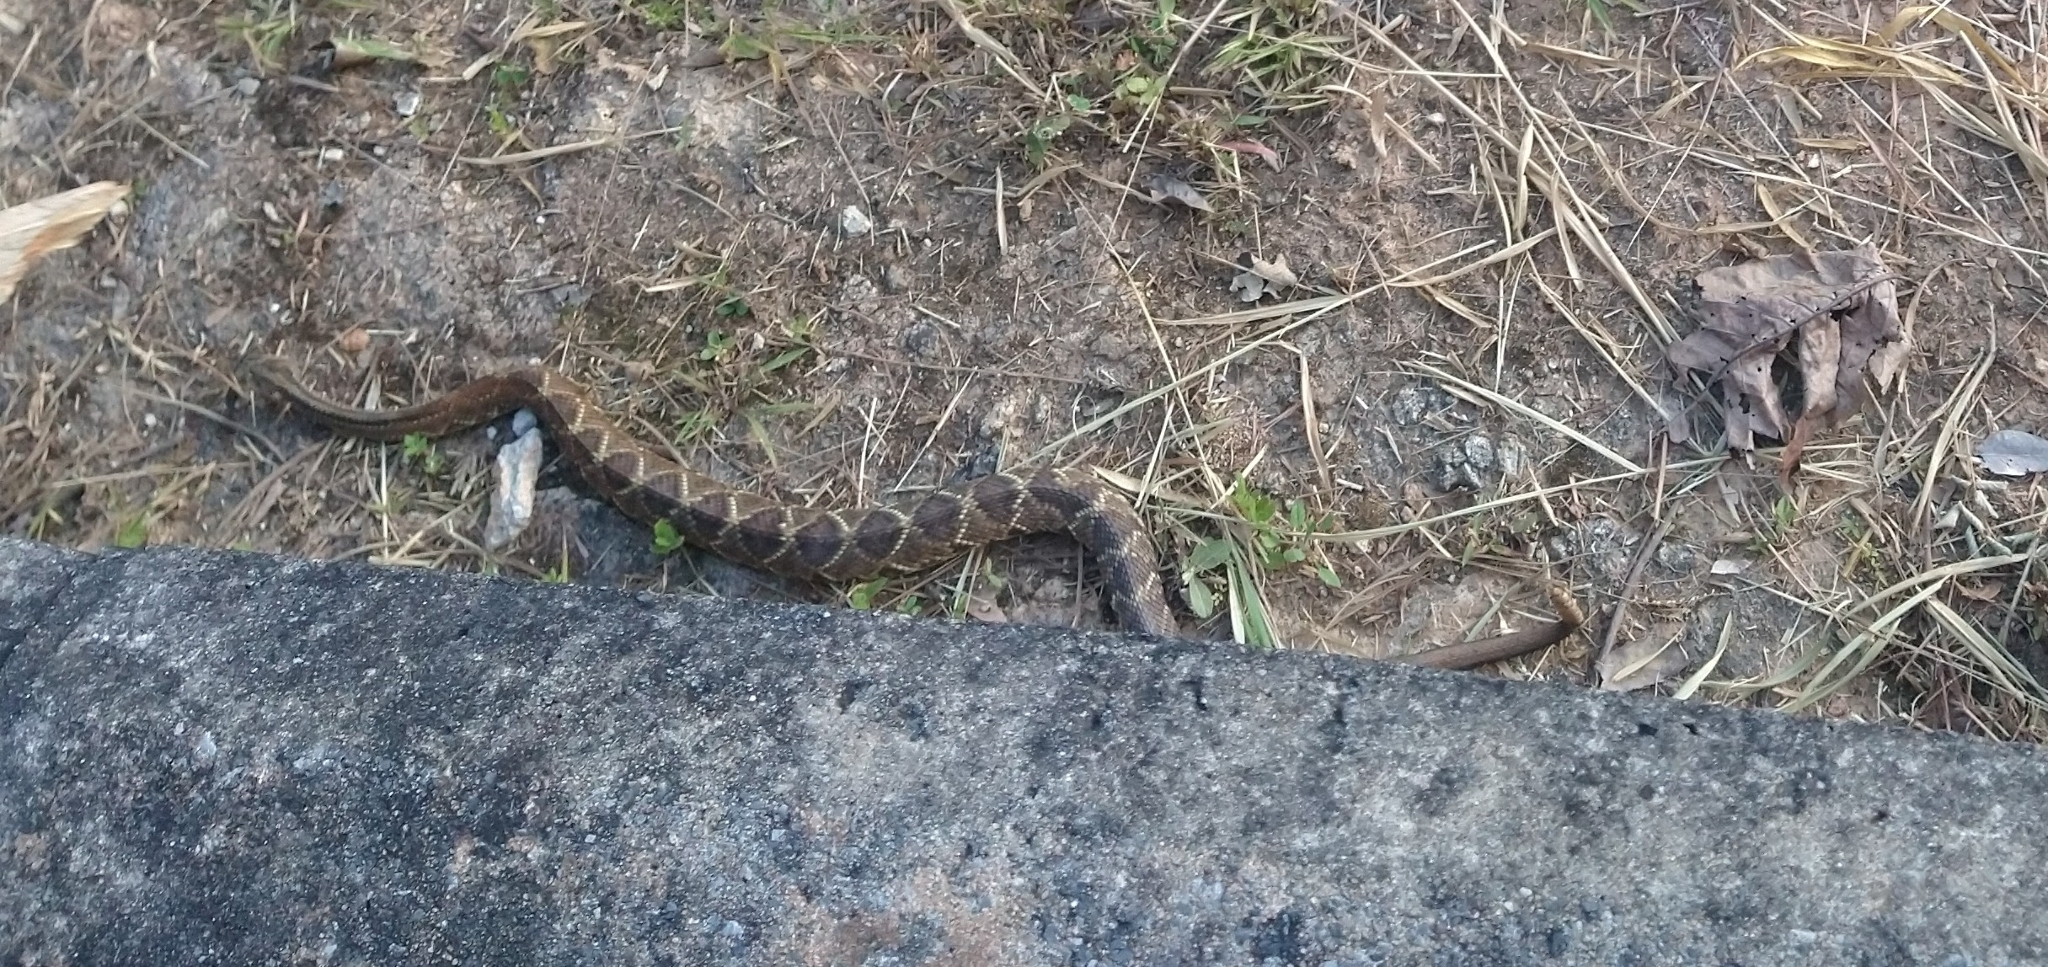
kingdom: Animalia
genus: Crotalus
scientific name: Crotalus durissus
